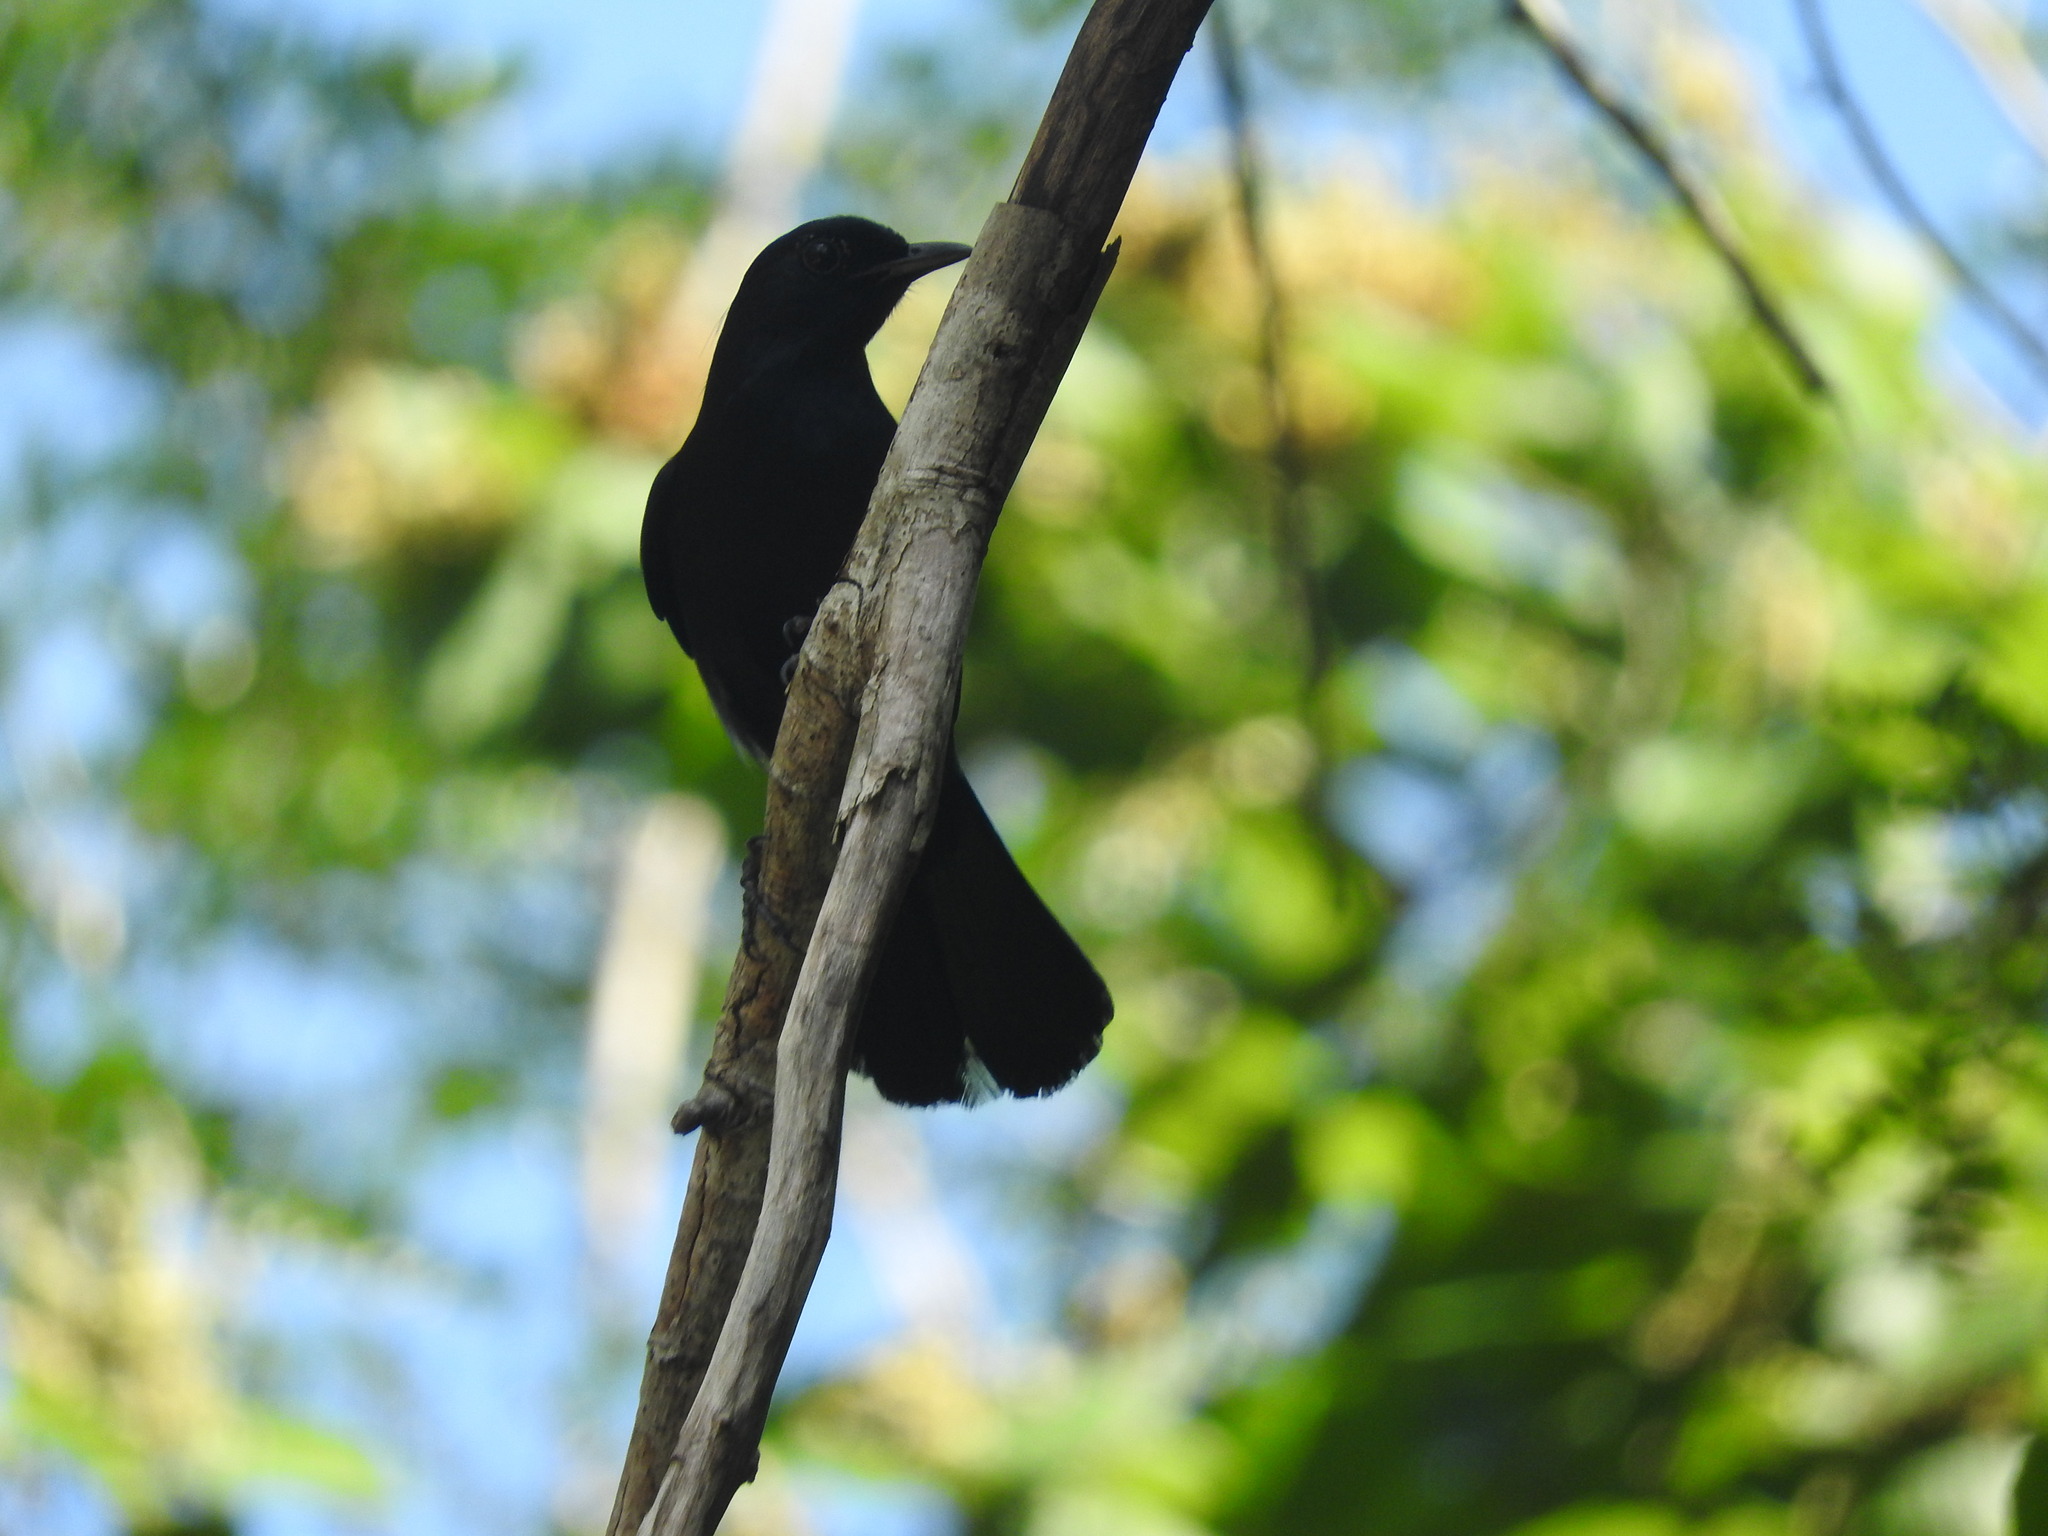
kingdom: Animalia
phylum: Chordata
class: Aves
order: Passeriformes
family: Mimidae
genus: Melanoptila
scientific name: Melanoptila glabrirostris
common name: Black catbird
